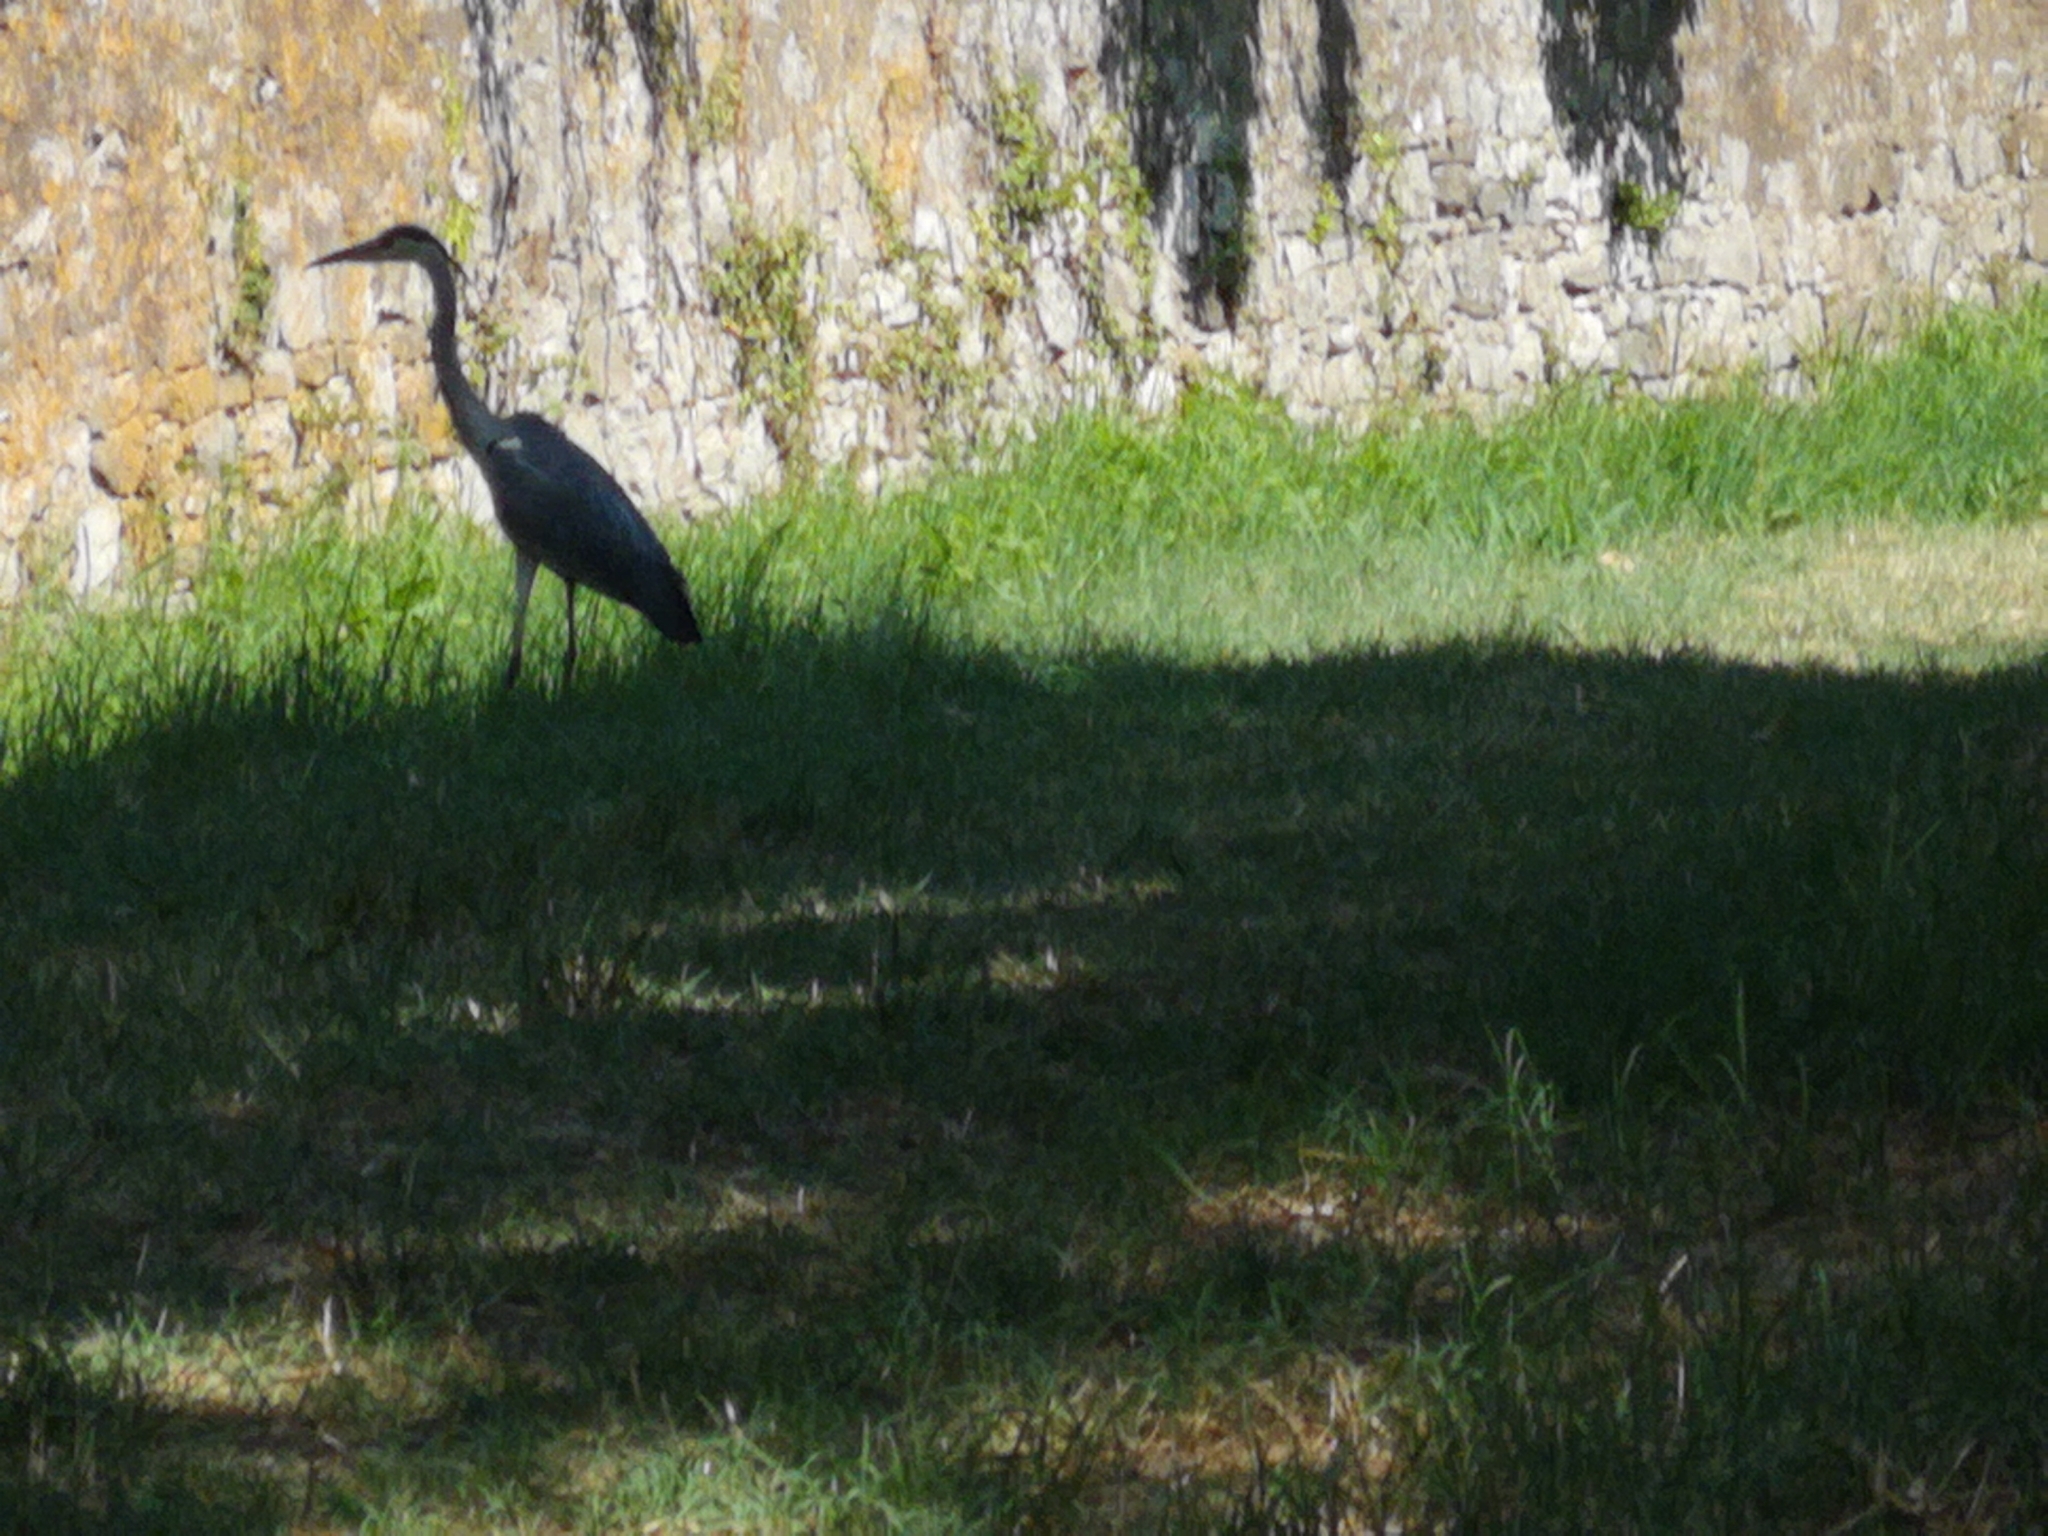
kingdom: Animalia
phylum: Chordata
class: Aves
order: Pelecaniformes
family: Ardeidae
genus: Ardea
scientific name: Ardea cinerea
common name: Grey heron
